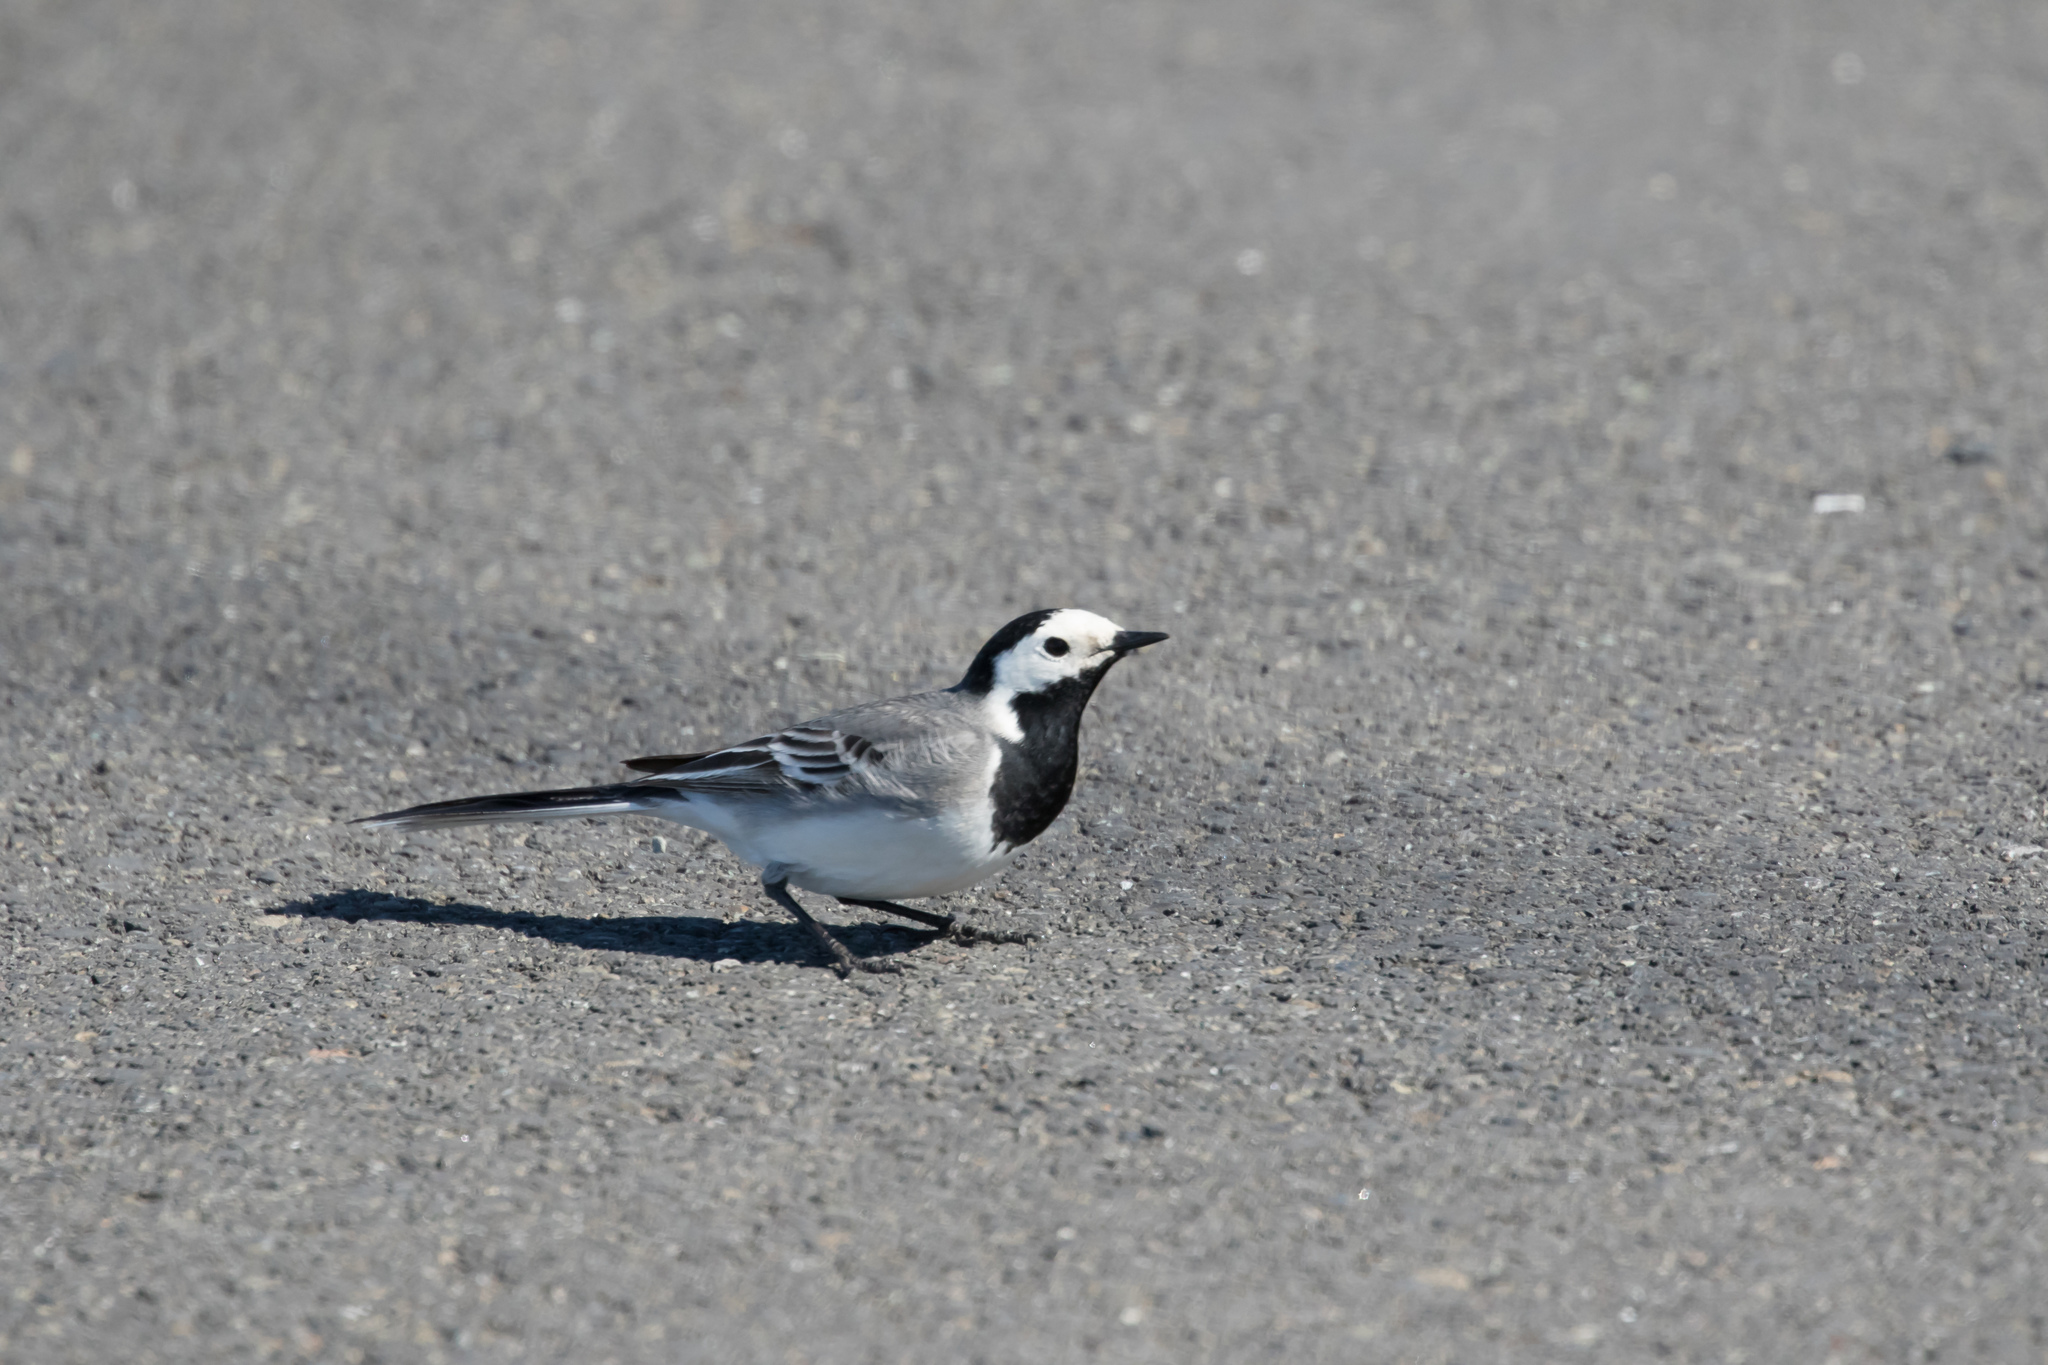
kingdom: Animalia
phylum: Chordata
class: Aves
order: Passeriformes
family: Motacillidae
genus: Motacilla
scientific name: Motacilla alba
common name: White wagtail
